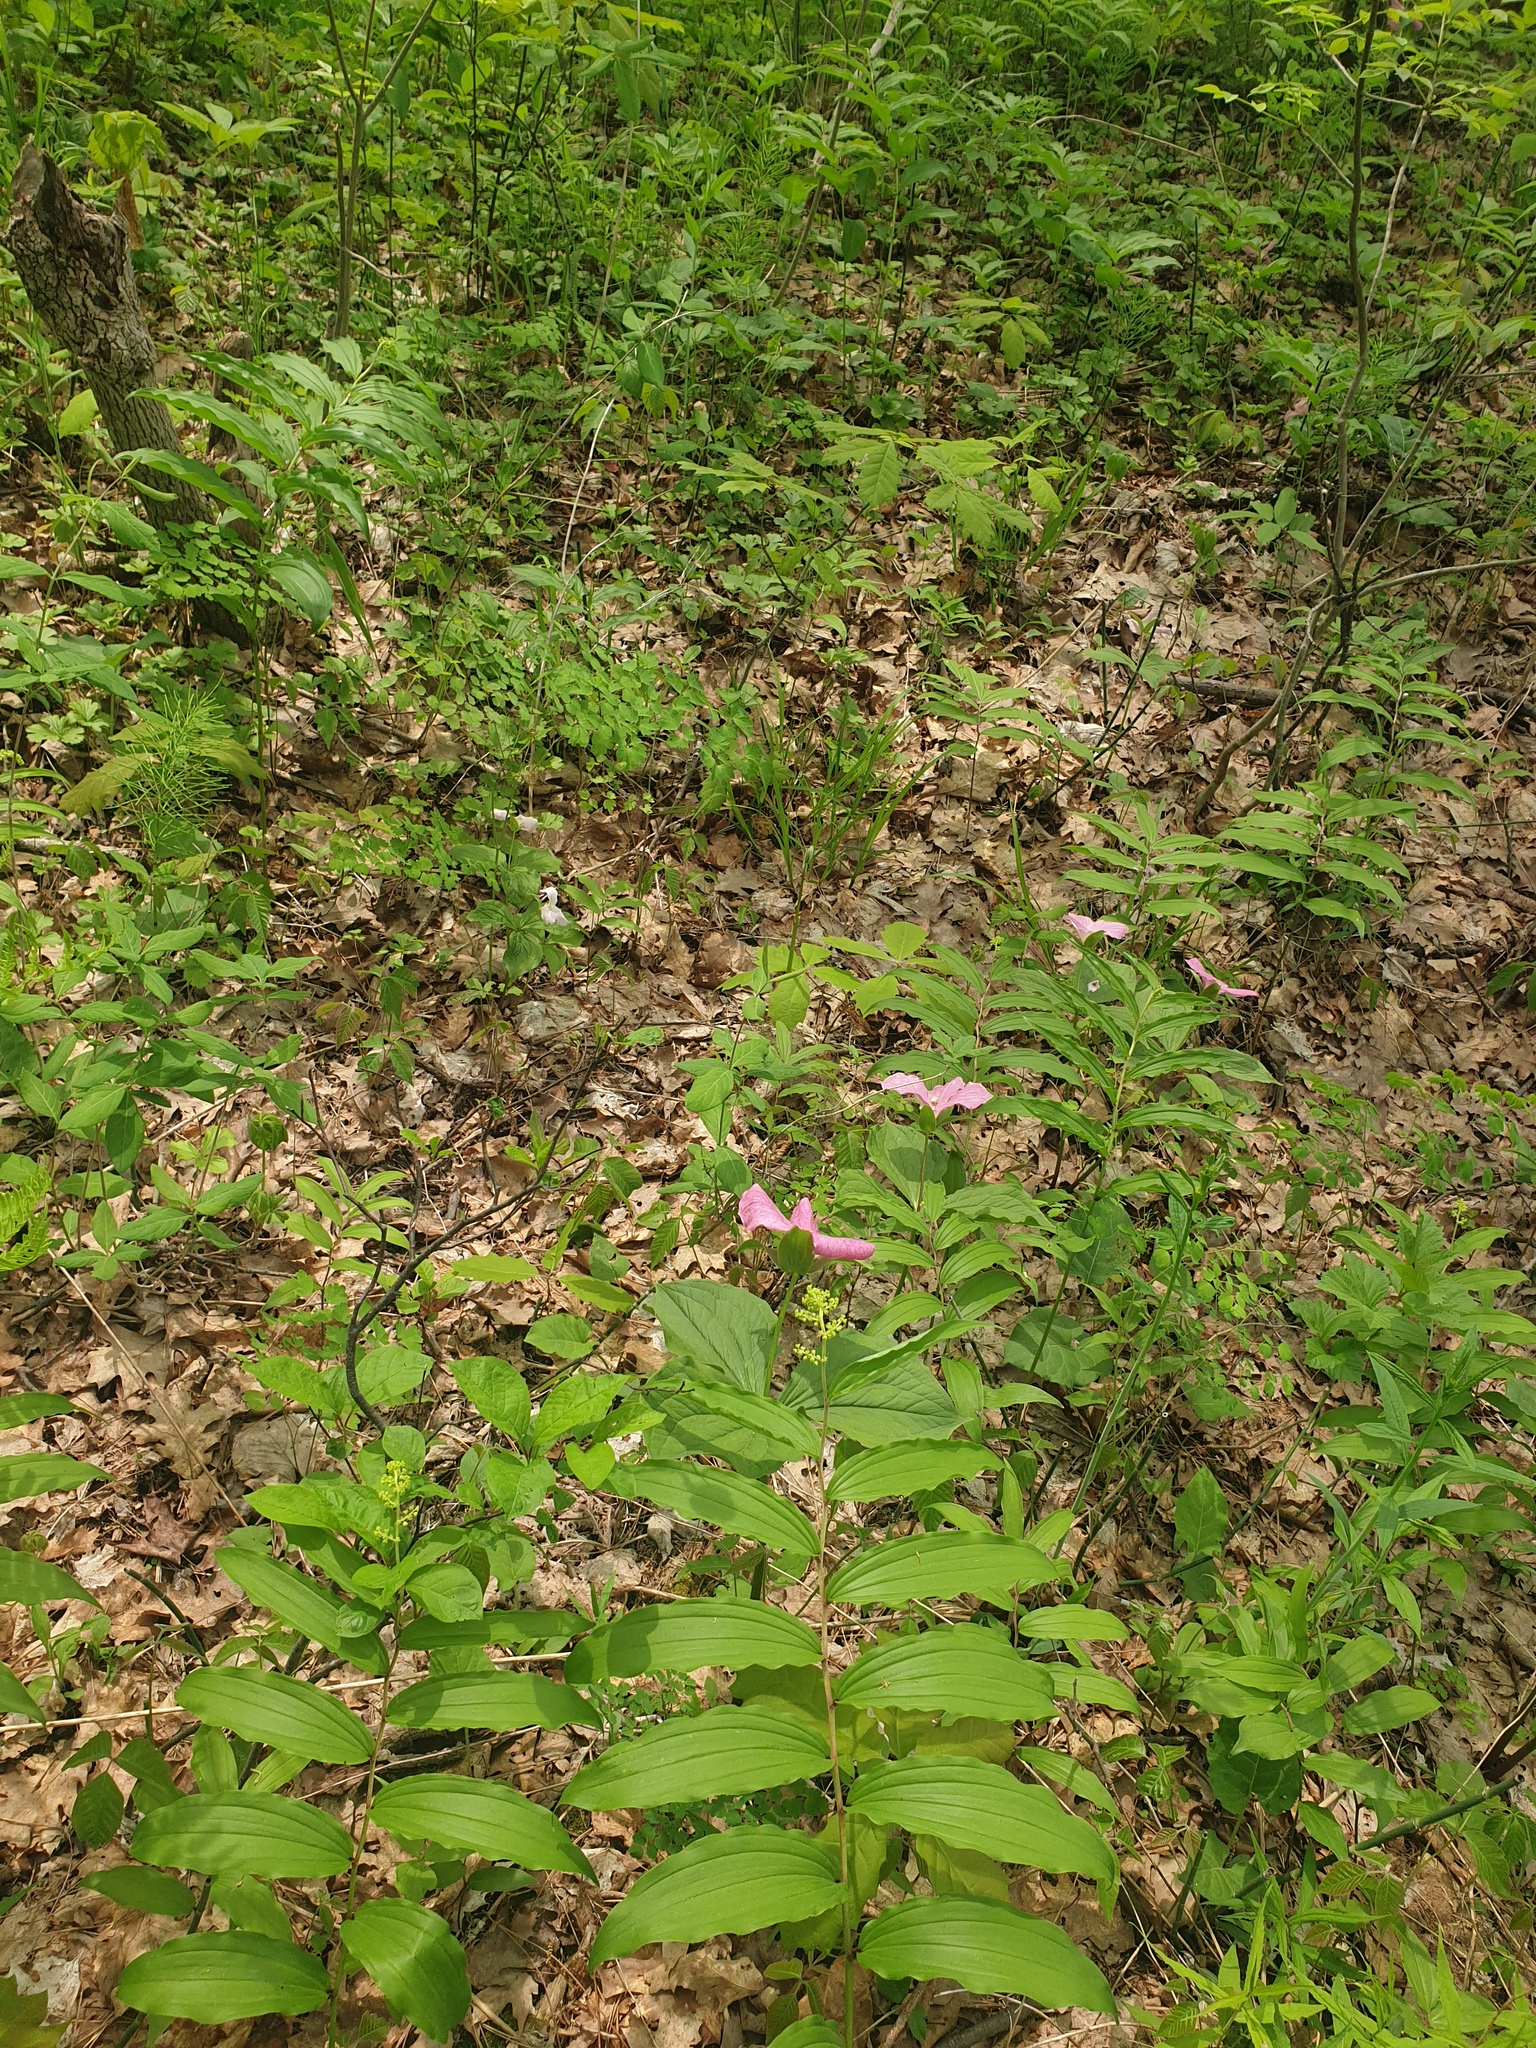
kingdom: Plantae
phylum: Tracheophyta
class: Liliopsida
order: Asparagales
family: Asparagaceae
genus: Maianthemum
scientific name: Maianthemum racemosum
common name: False spikenard
